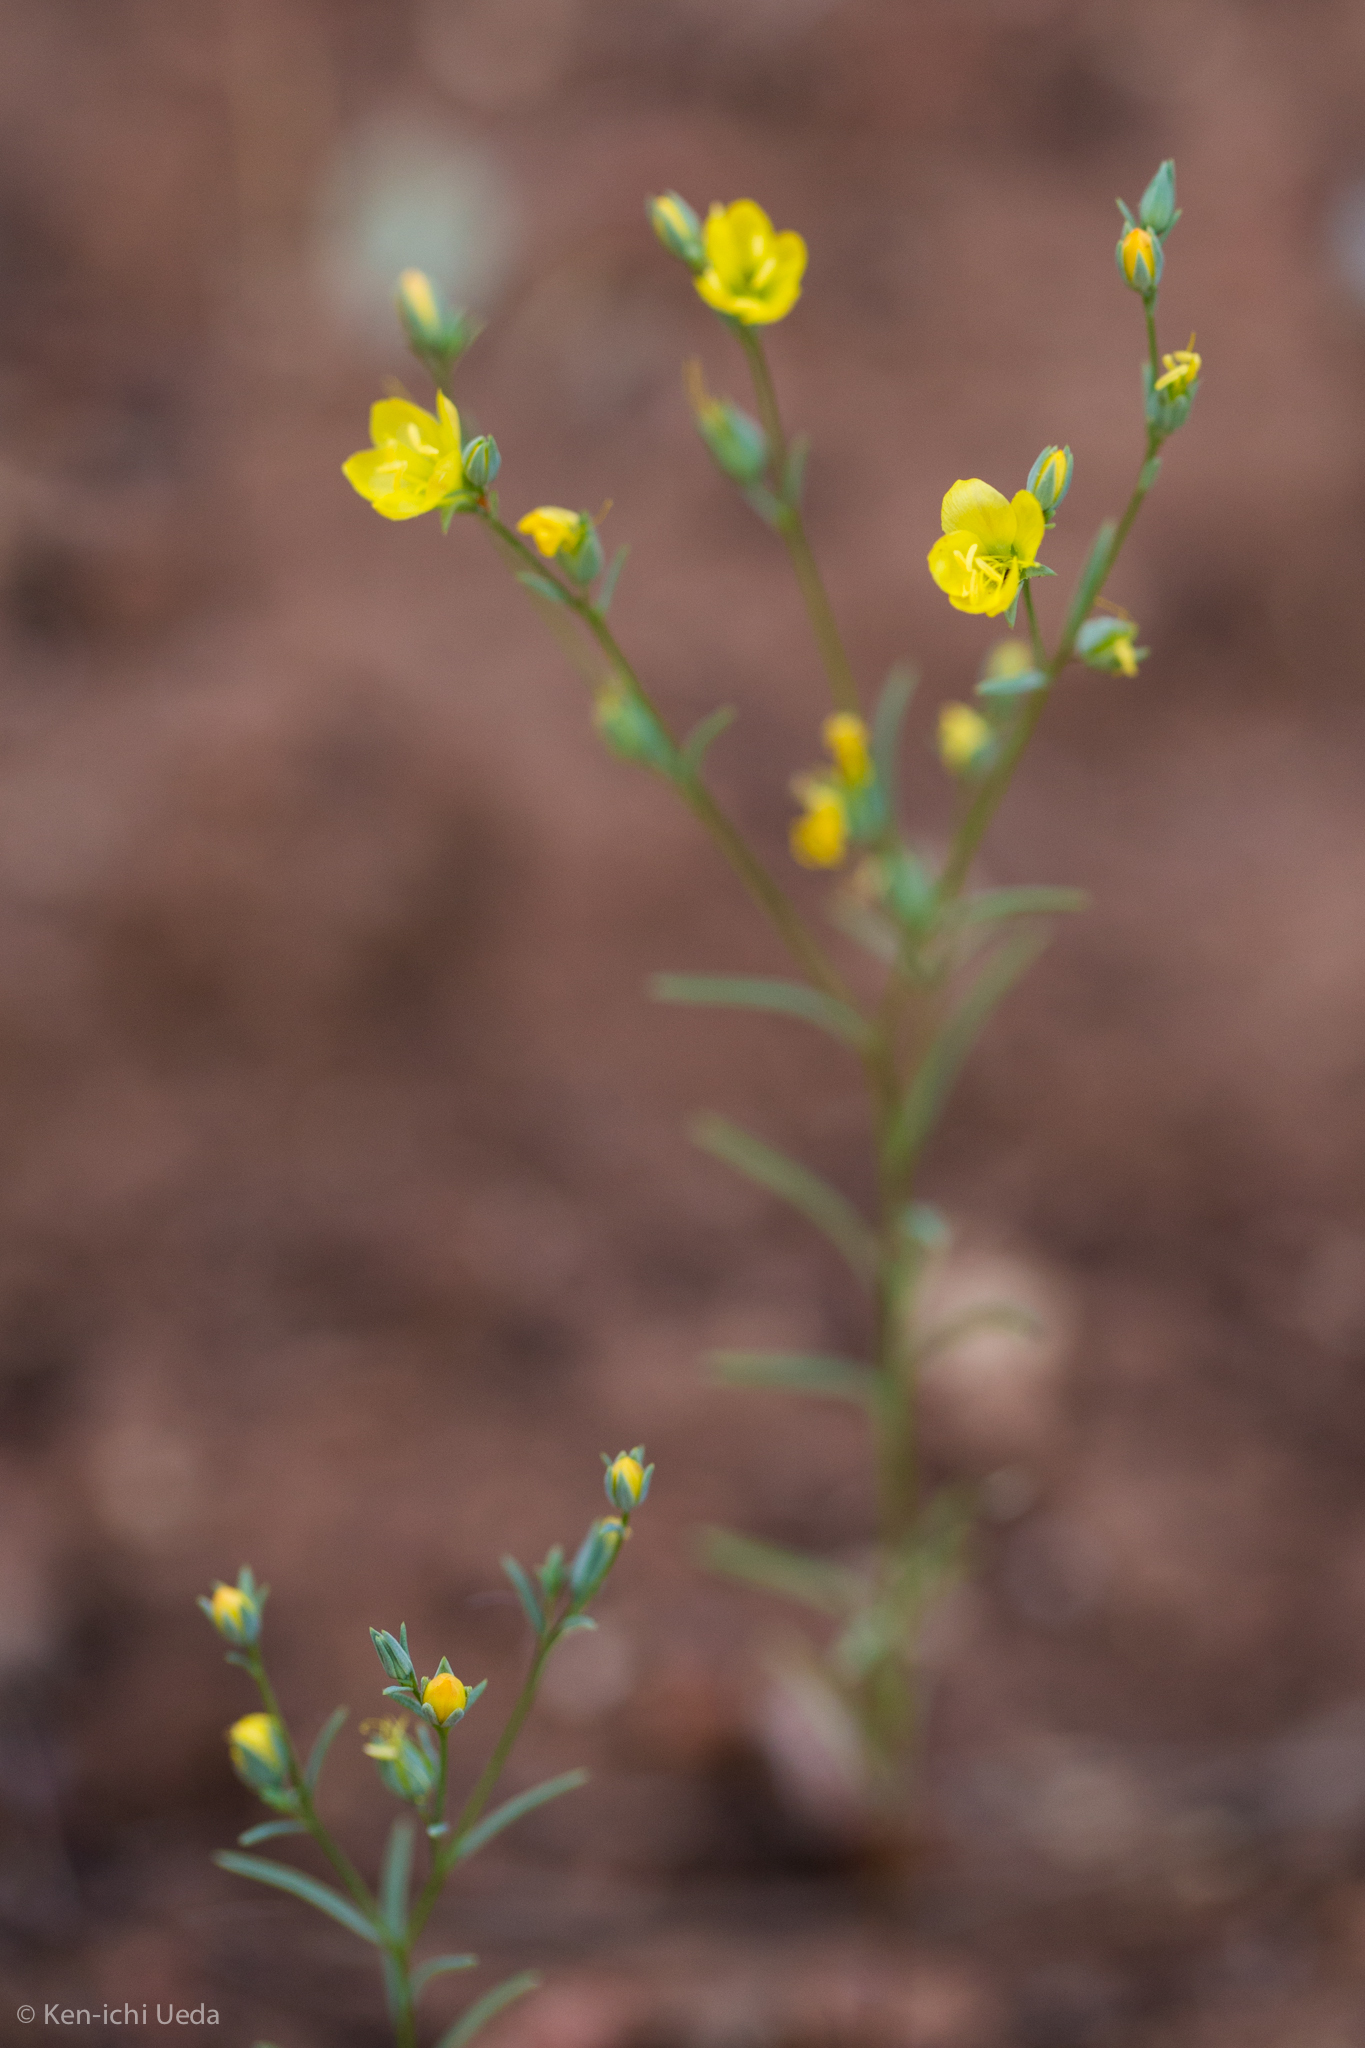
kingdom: Plantae
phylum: Tracheophyta
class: Magnoliopsida
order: Malpighiales
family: Linaceae
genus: Hesperolinon
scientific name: Hesperolinon breweri
